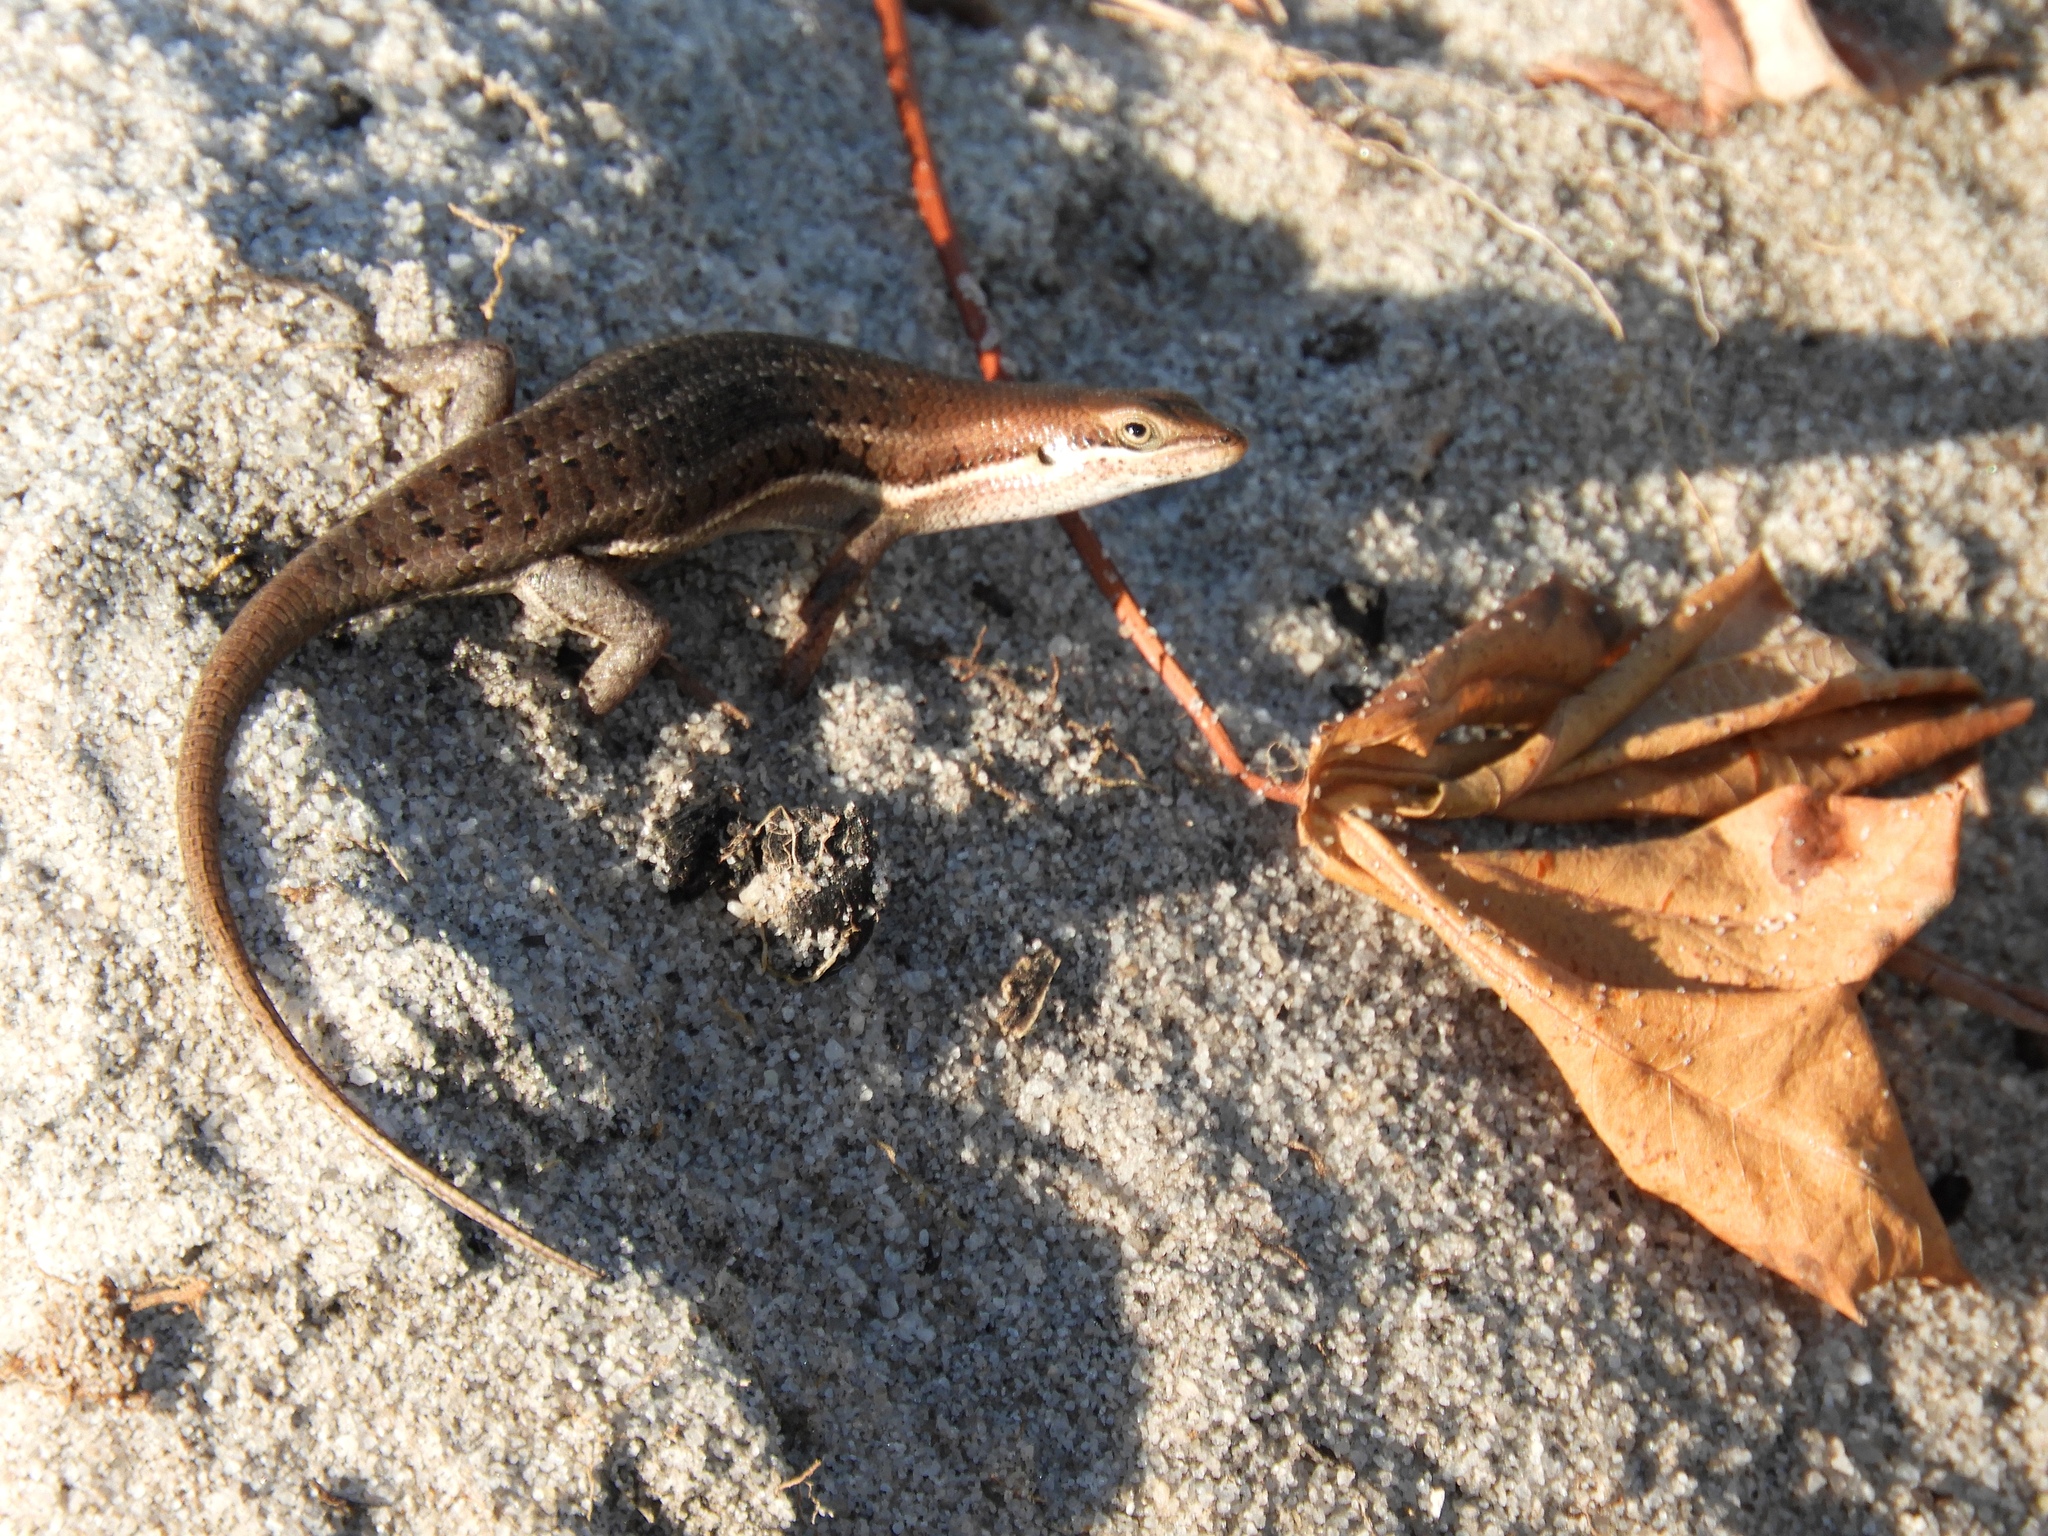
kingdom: Animalia
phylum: Chordata
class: Squamata
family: Scincidae
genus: Trachylepis
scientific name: Trachylepis varia
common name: Eastern variable skink
